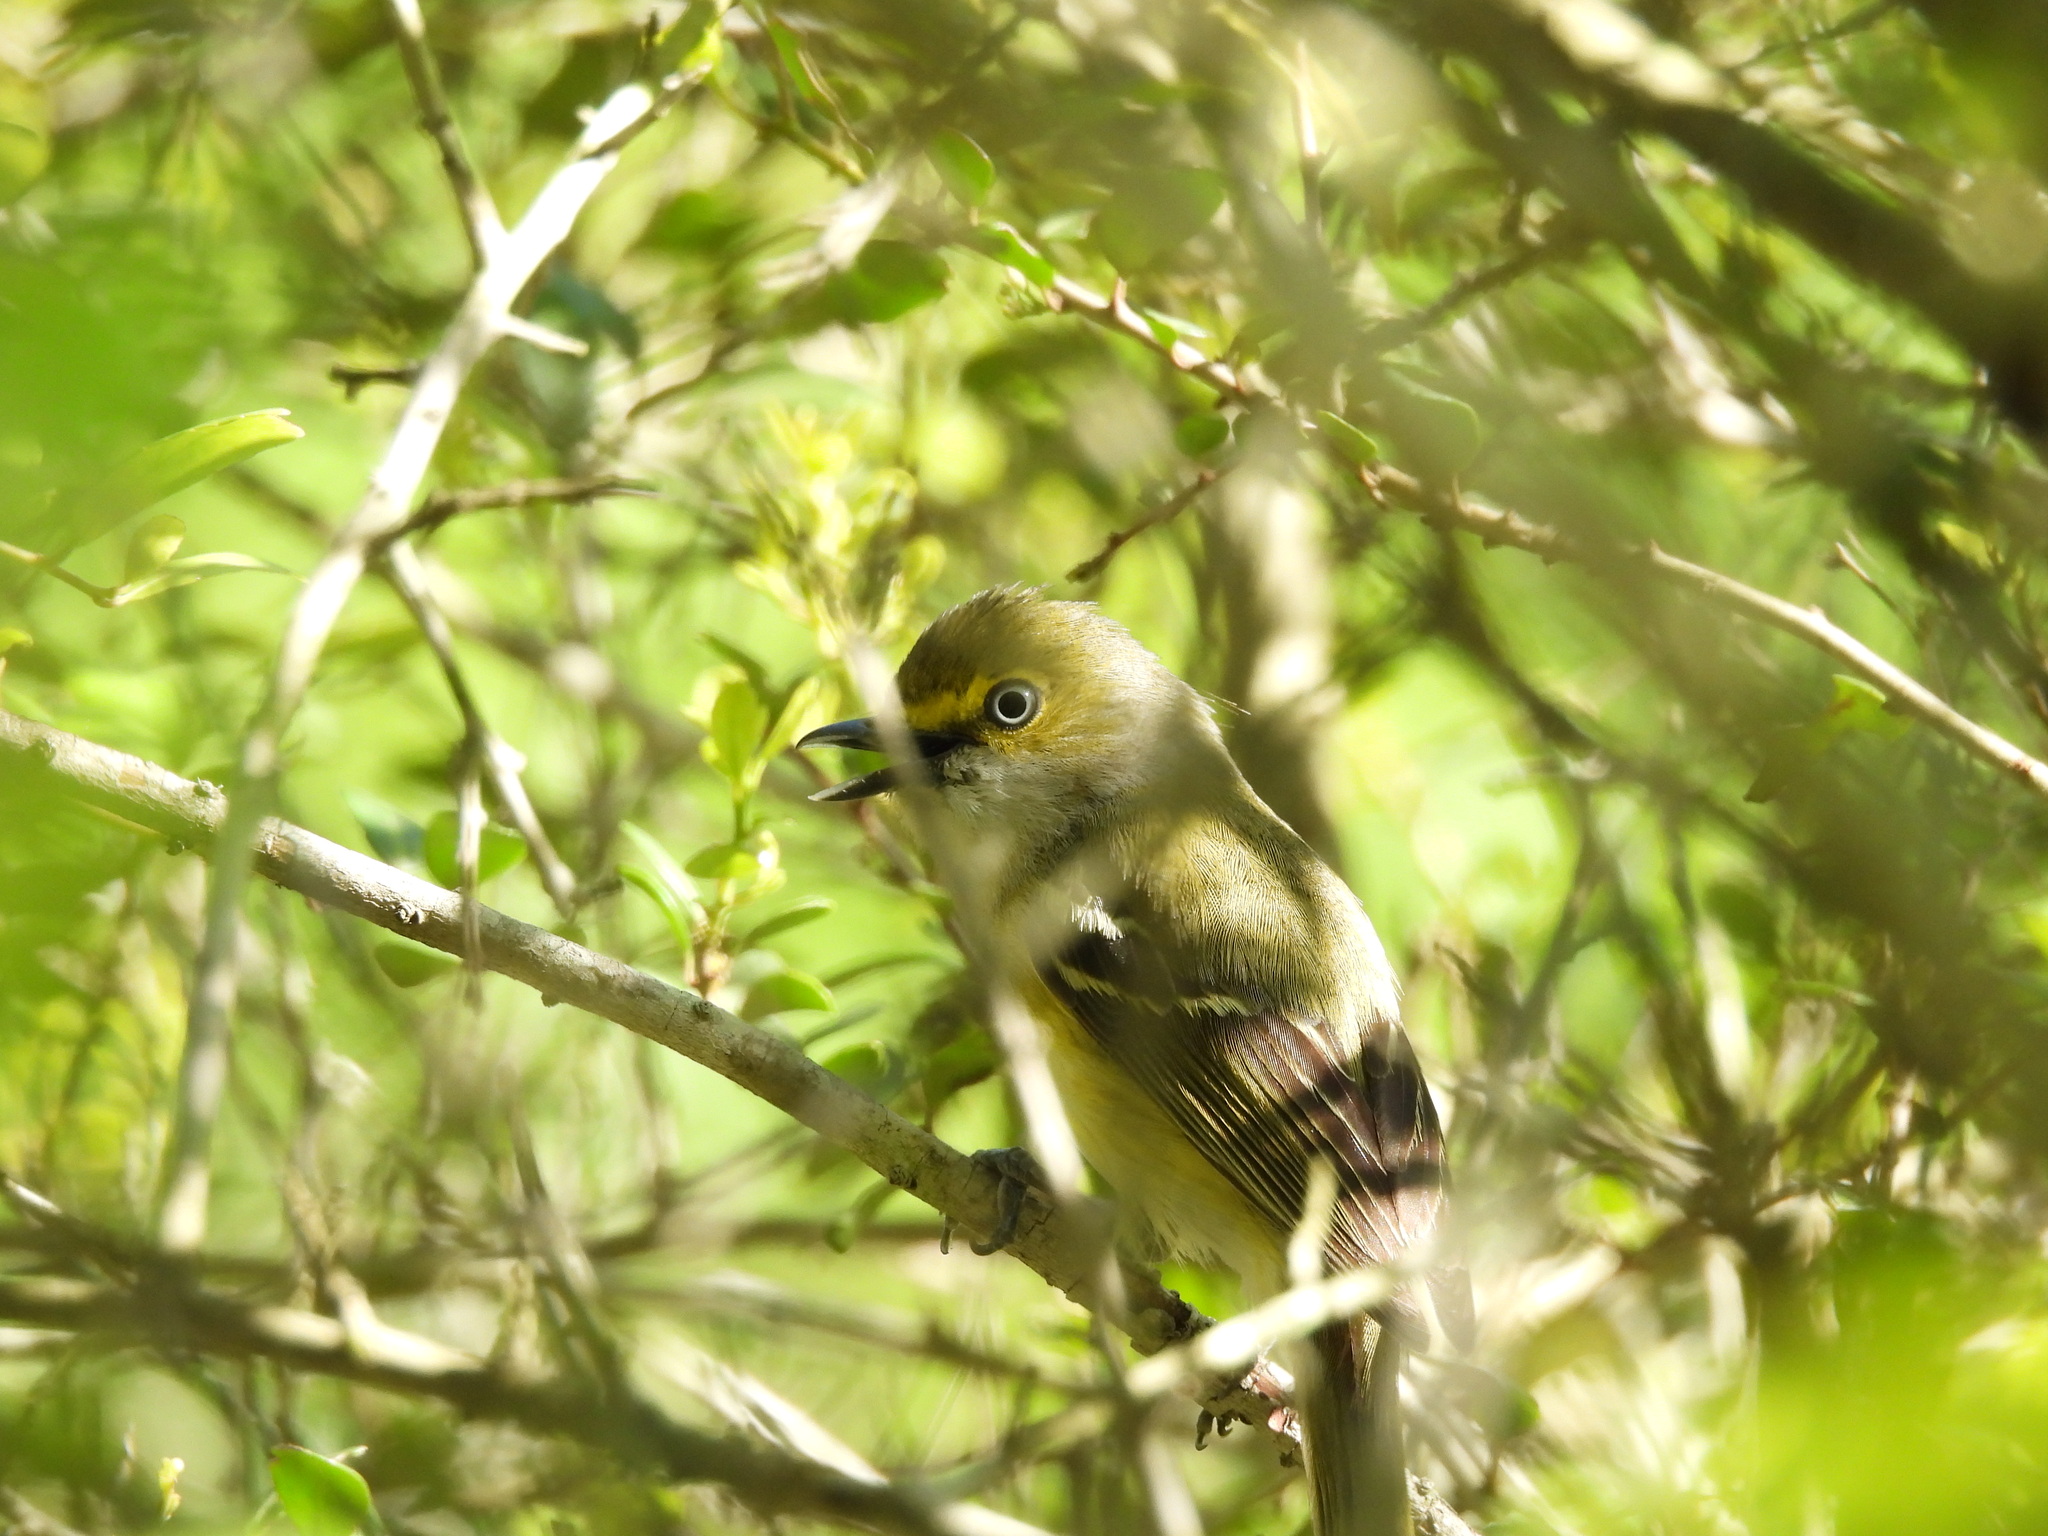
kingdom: Animalia
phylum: Chordata
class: Aves
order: Passeriformes
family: Vireonidae
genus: Vireo
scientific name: Vireo griseus
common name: White-eyed vireo
